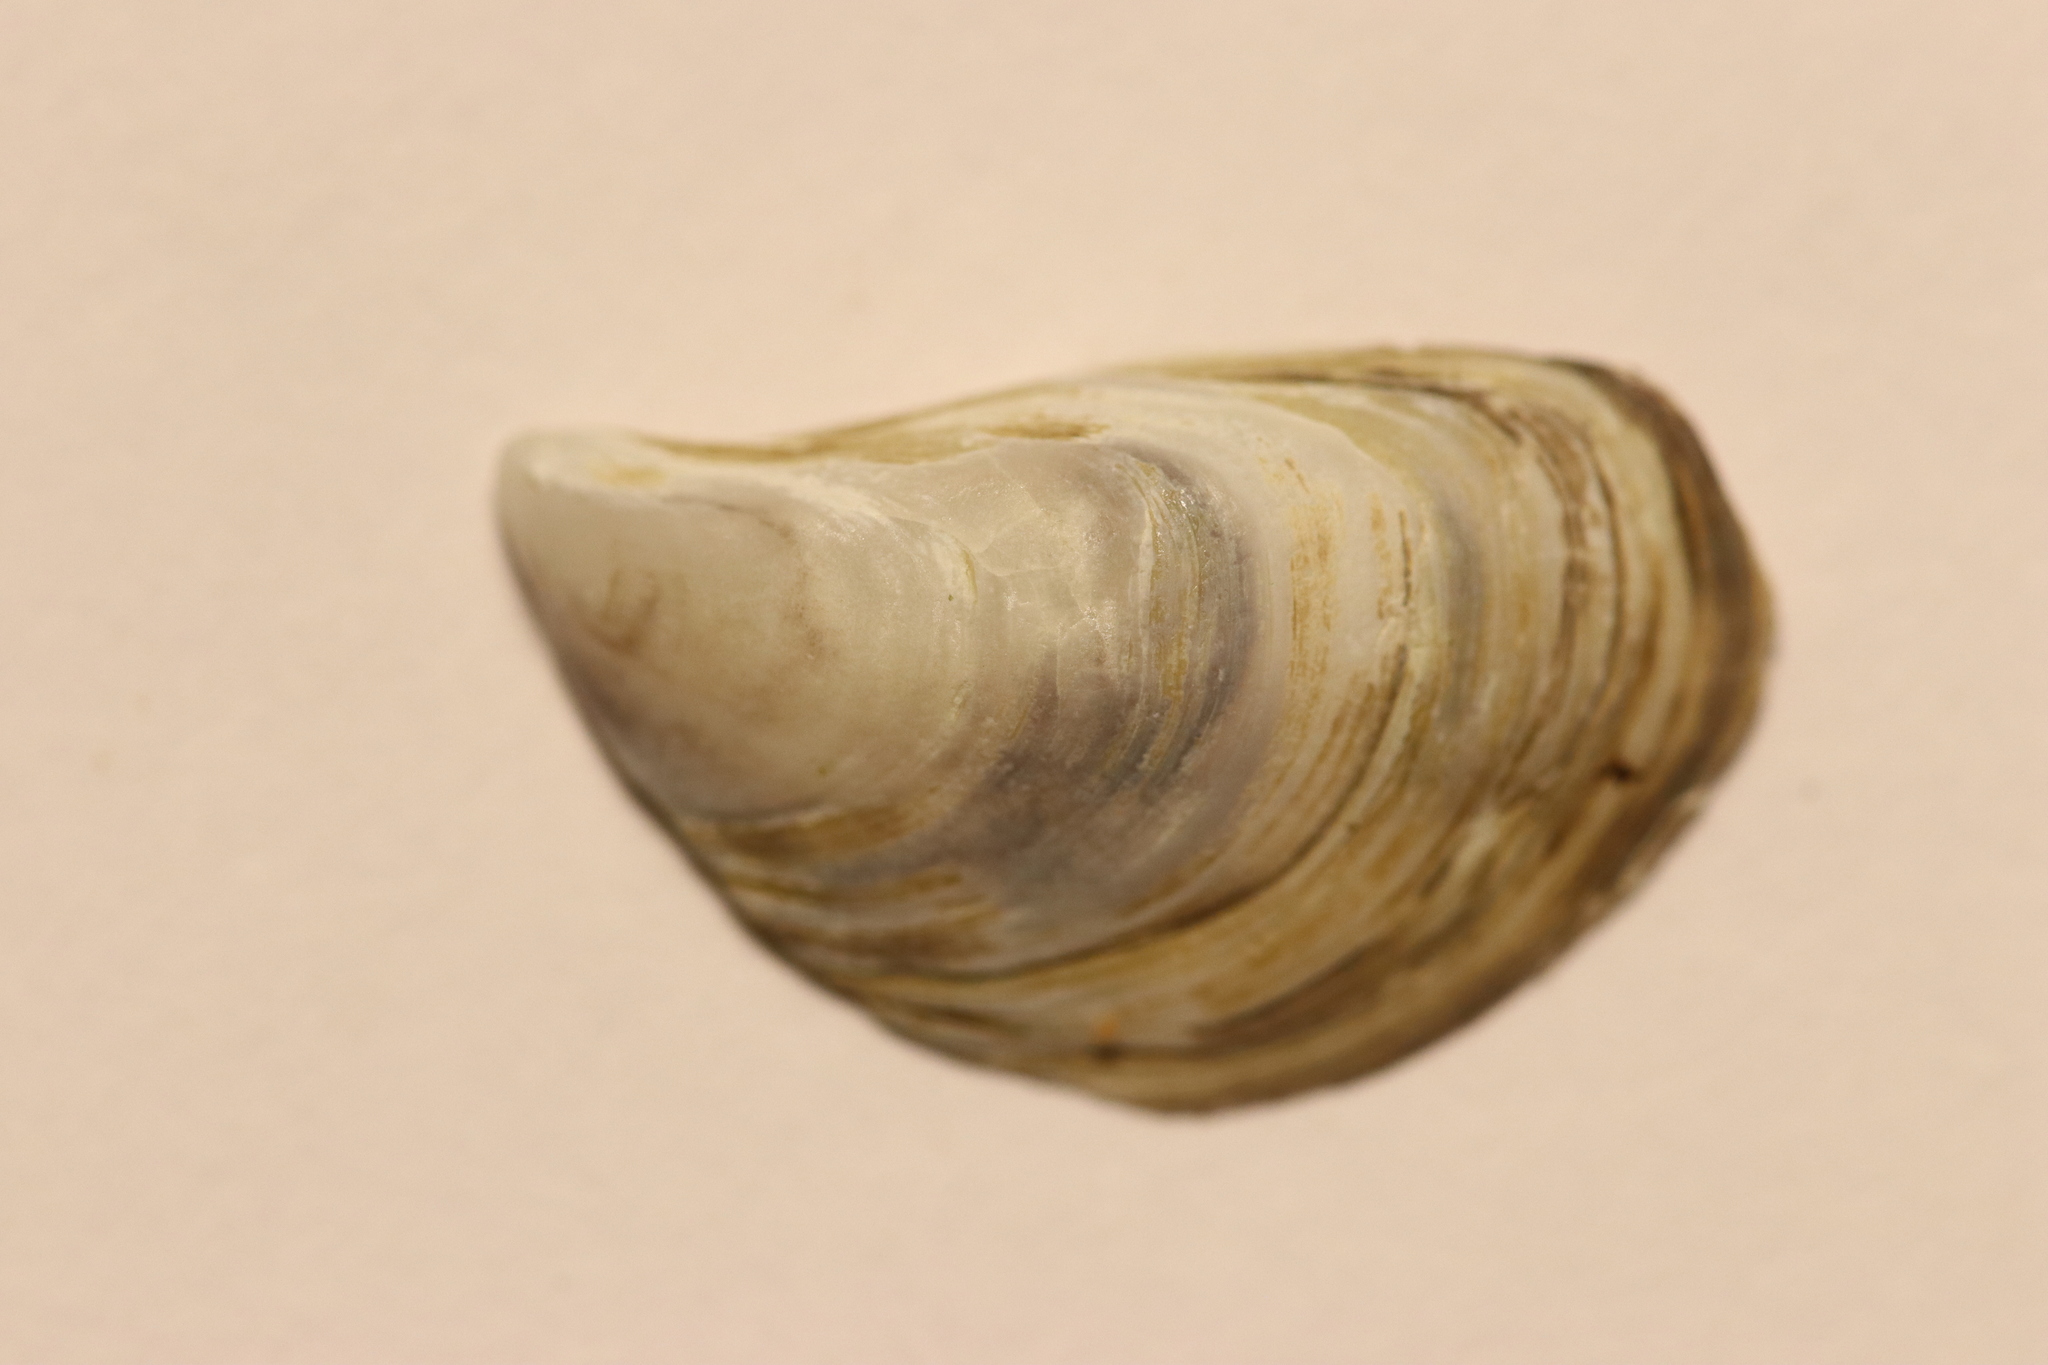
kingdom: Animalia
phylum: Mollusca
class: Bivalvia
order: Myida
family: Dreissenidae
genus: Dreissena
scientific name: Dreissena bugensis
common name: Quagga mussel
